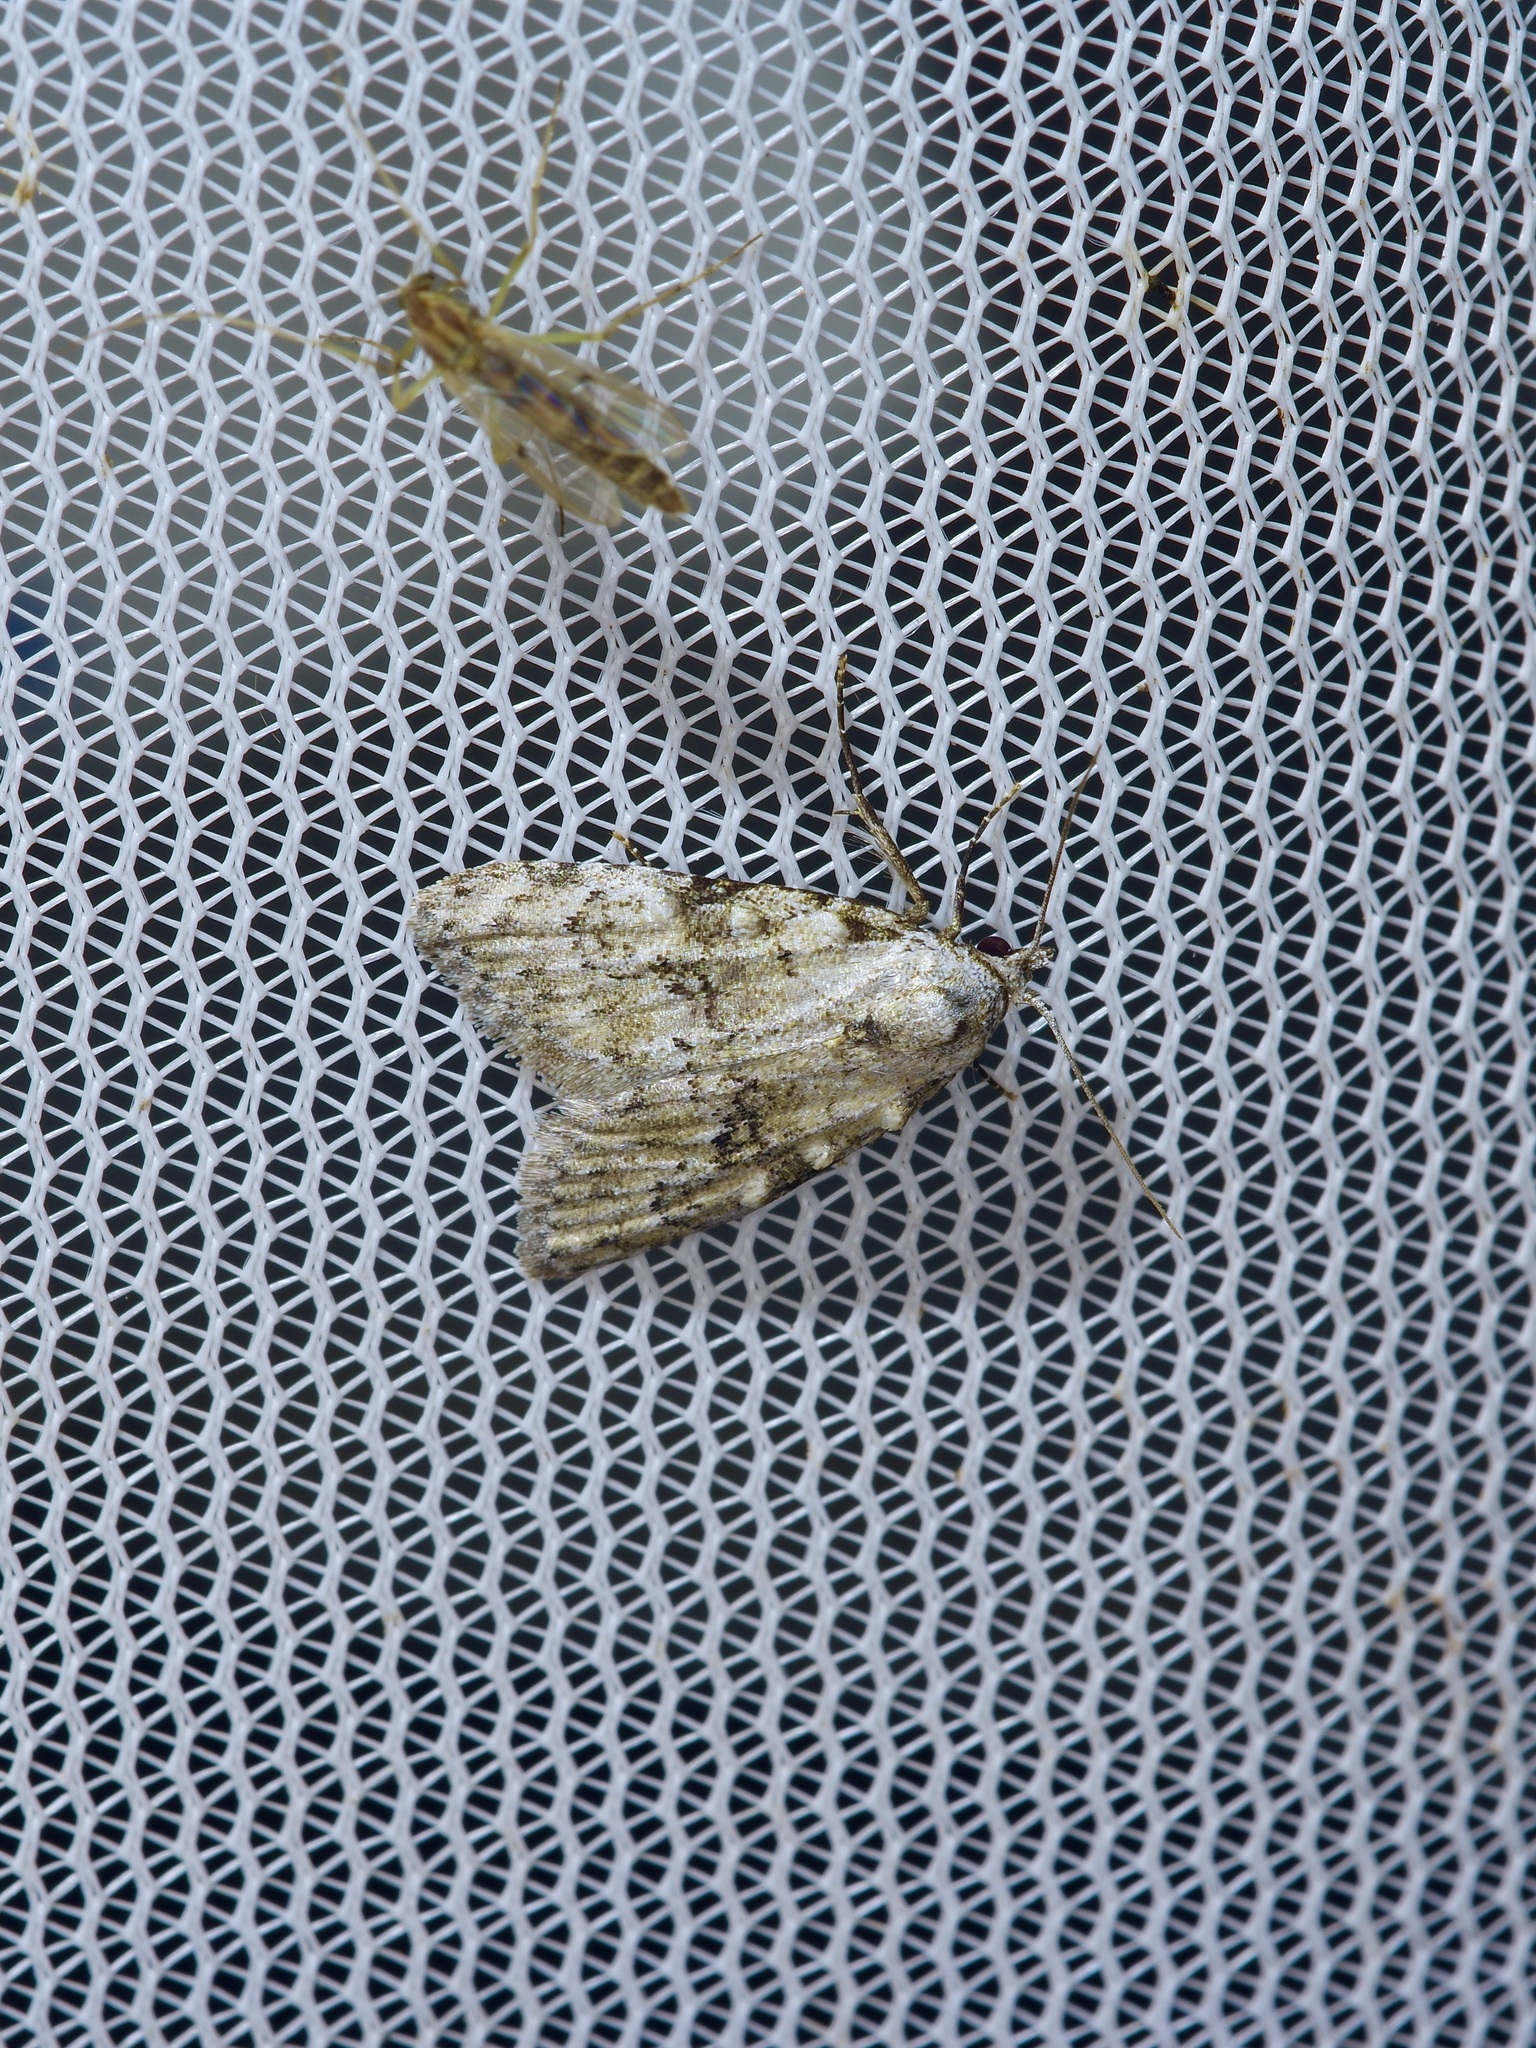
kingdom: Animalia
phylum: Arthropoda
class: Insecta
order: Lepidoptera
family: Nolidae
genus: Meganola
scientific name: Meganola minuscula
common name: Confused meganola moth
